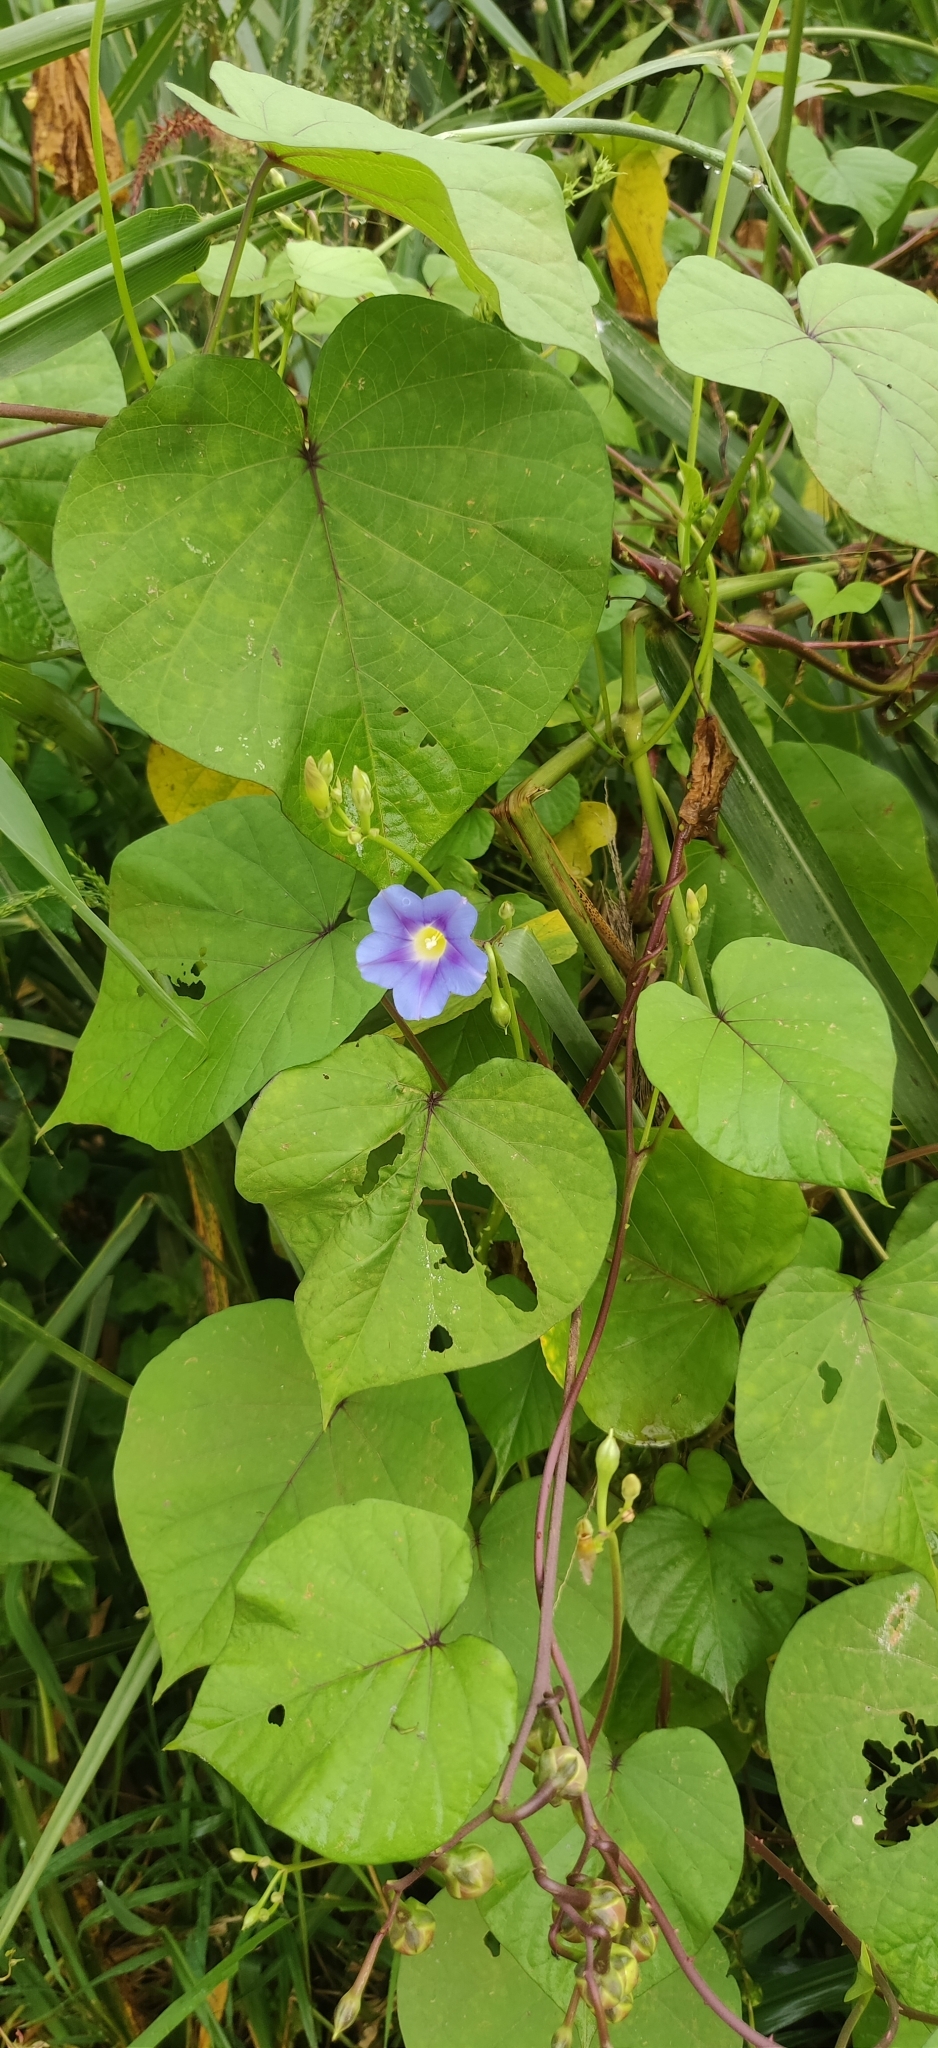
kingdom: Plantae
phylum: Tracheophyta
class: Magnoliopsida
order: Solanales
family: Convolvulaceae
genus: Ipomoea
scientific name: Ipomoea parasitica
